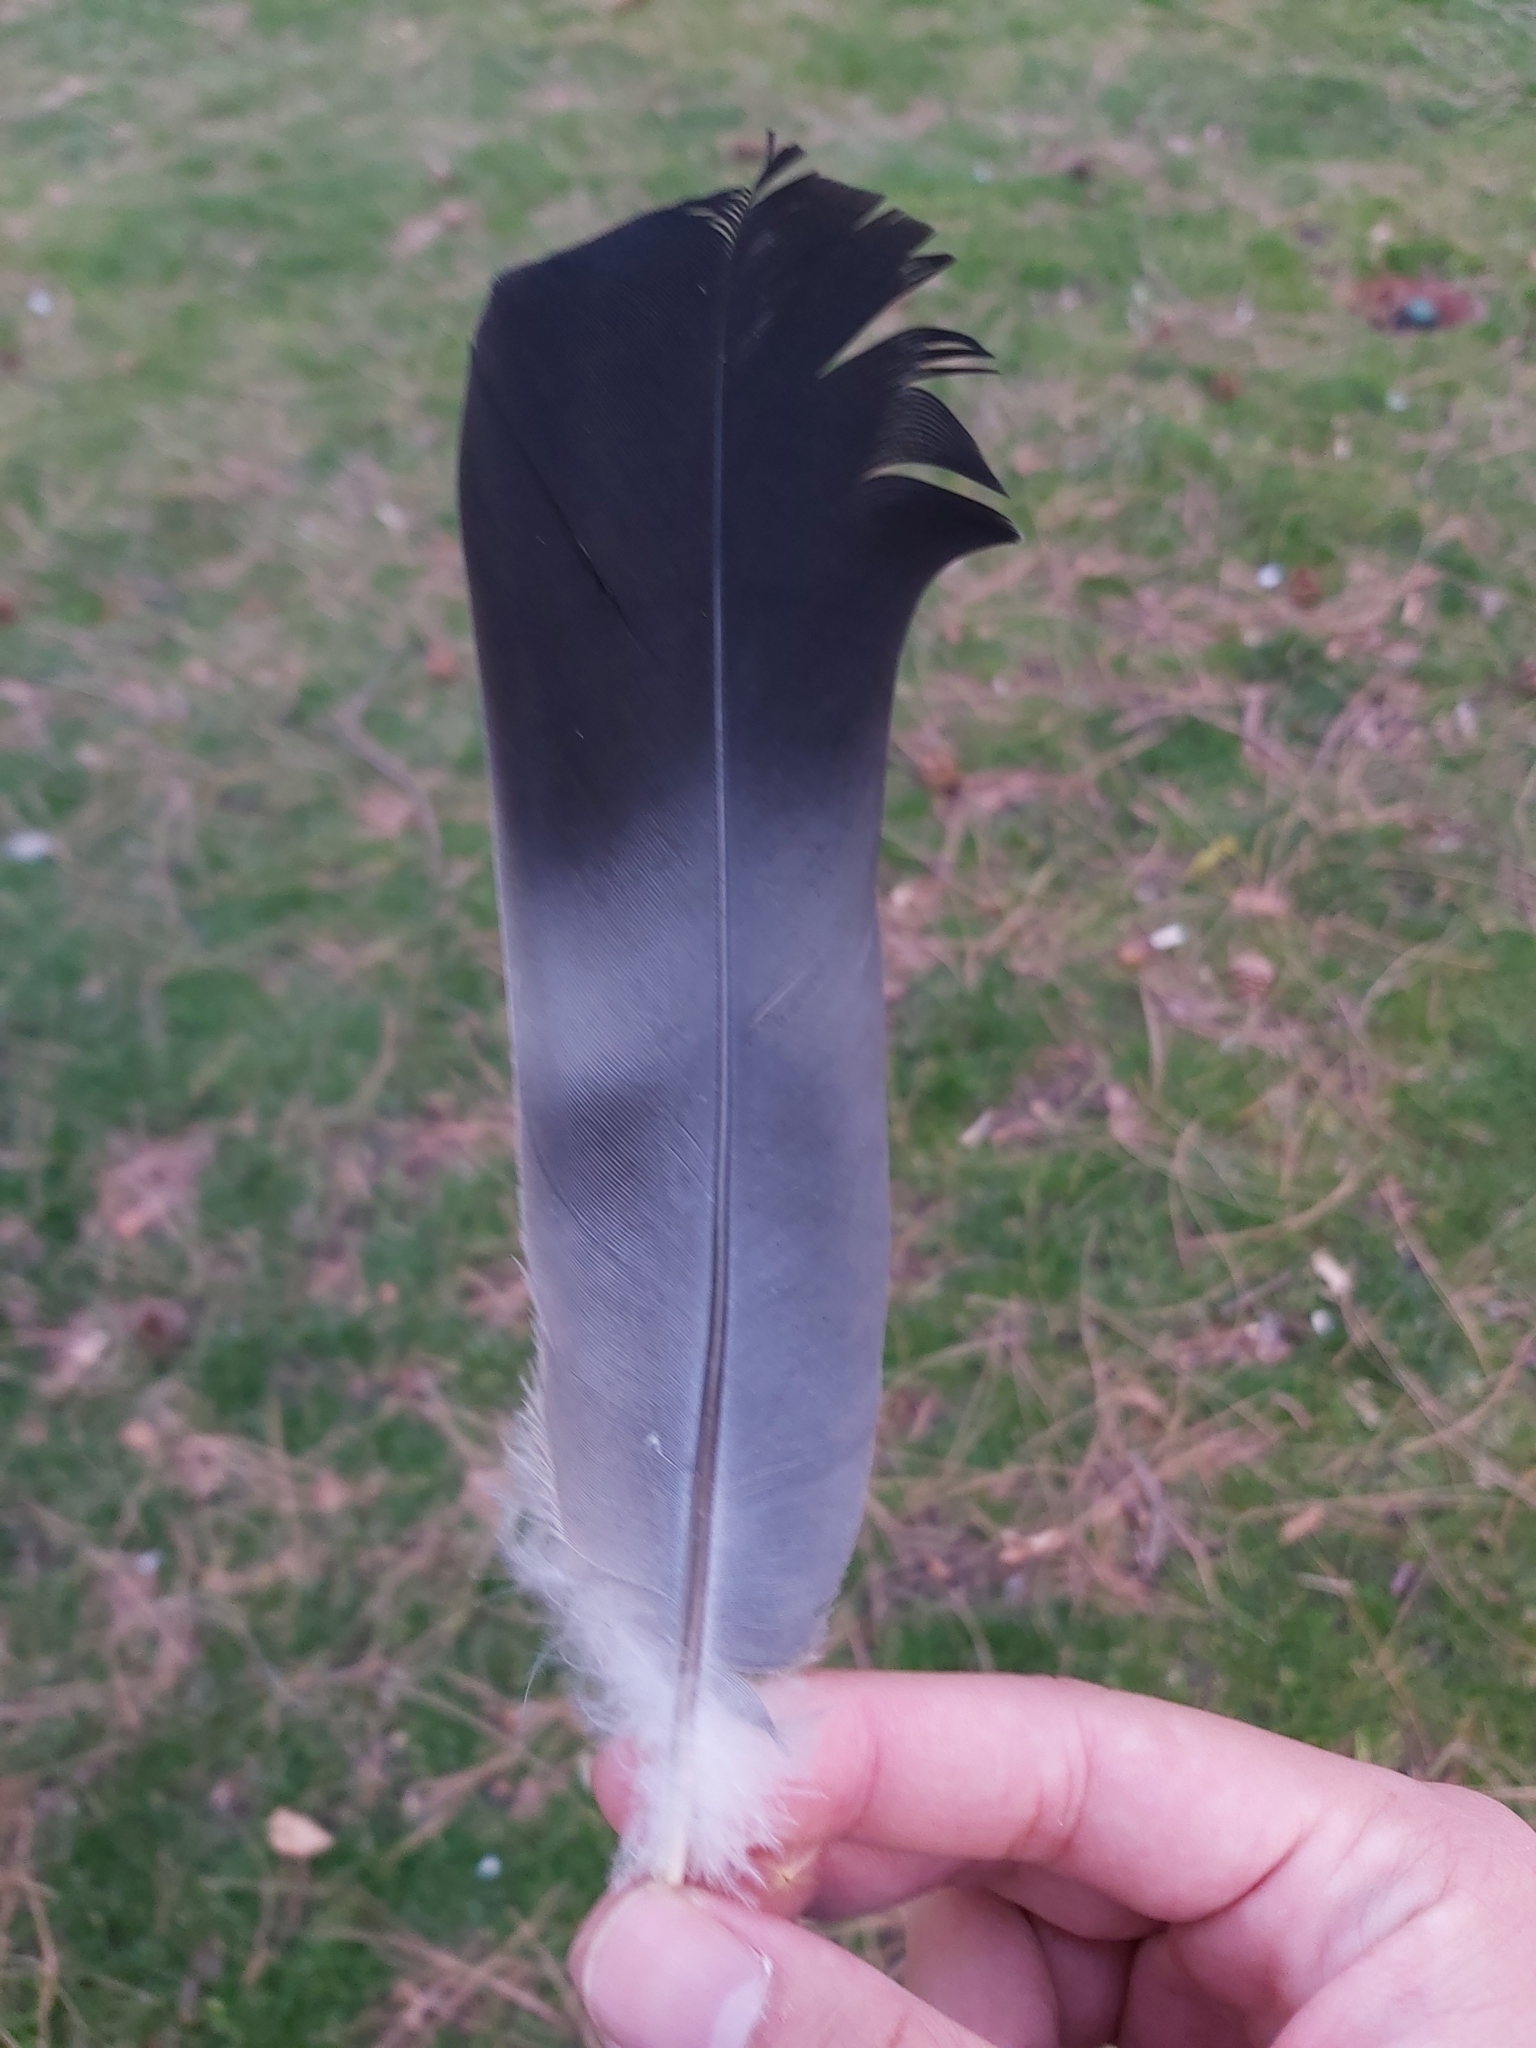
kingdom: Animalia
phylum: Chordata
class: Aves
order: Columbiformes
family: Columbidae
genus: Columba
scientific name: Columba palumbus
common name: Common wood pigeon
